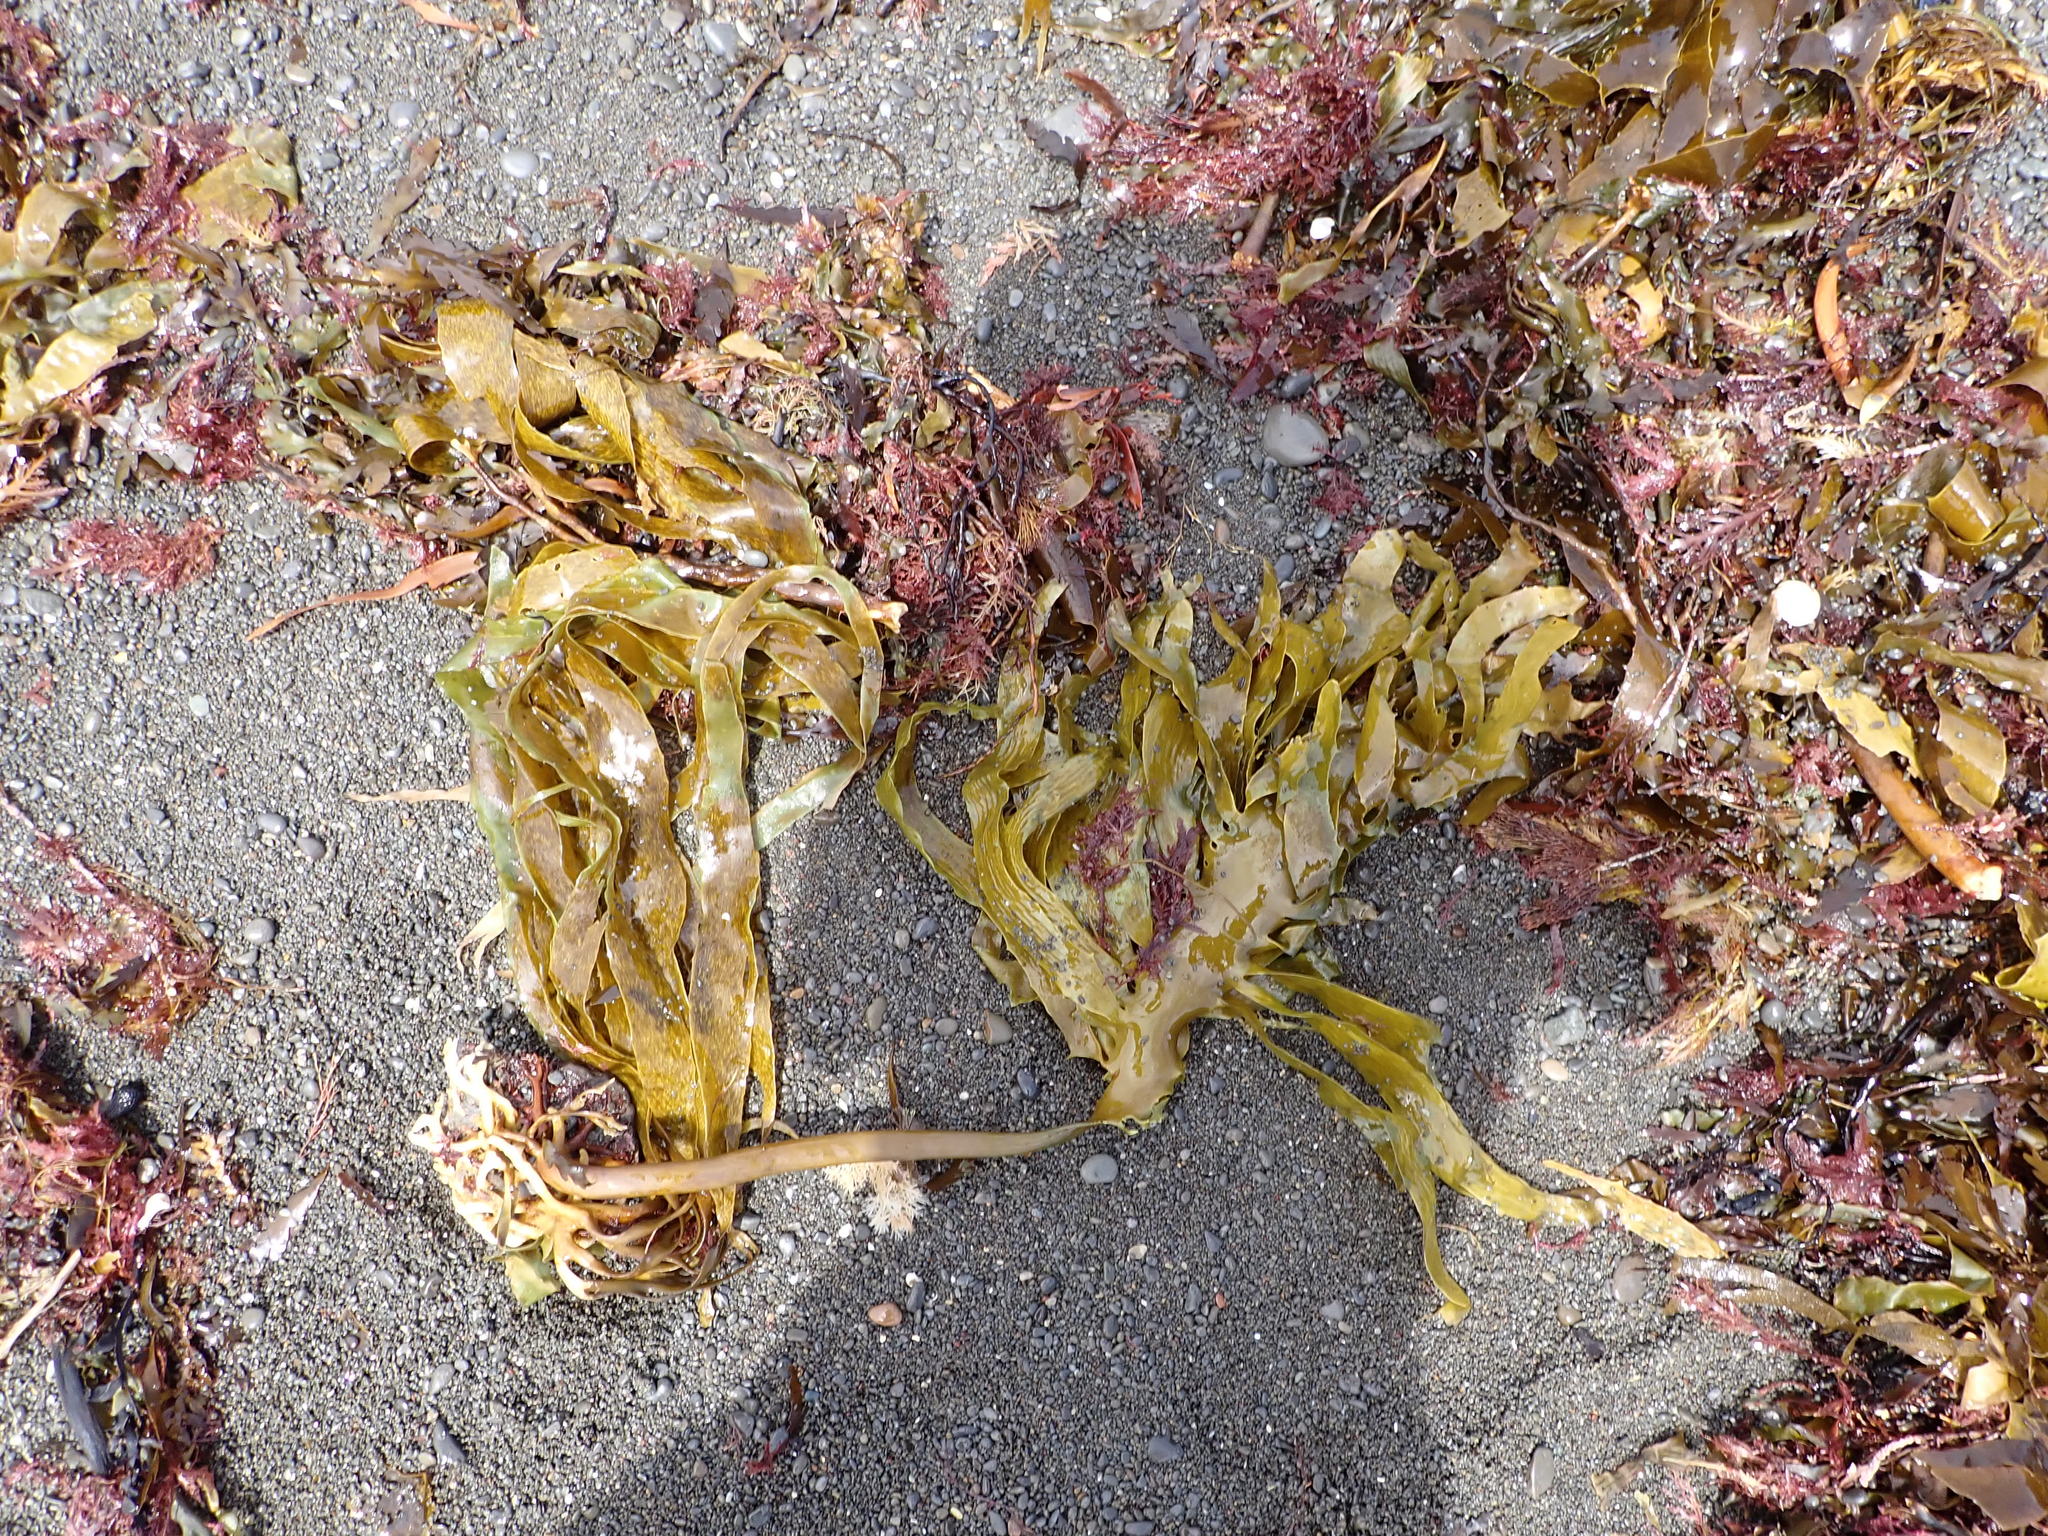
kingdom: Chromista
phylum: Ochrophyta
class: Phaeophyceae
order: Laminariales
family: Lessoniaceae
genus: Ecklonia
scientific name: Ecklonia radiata
